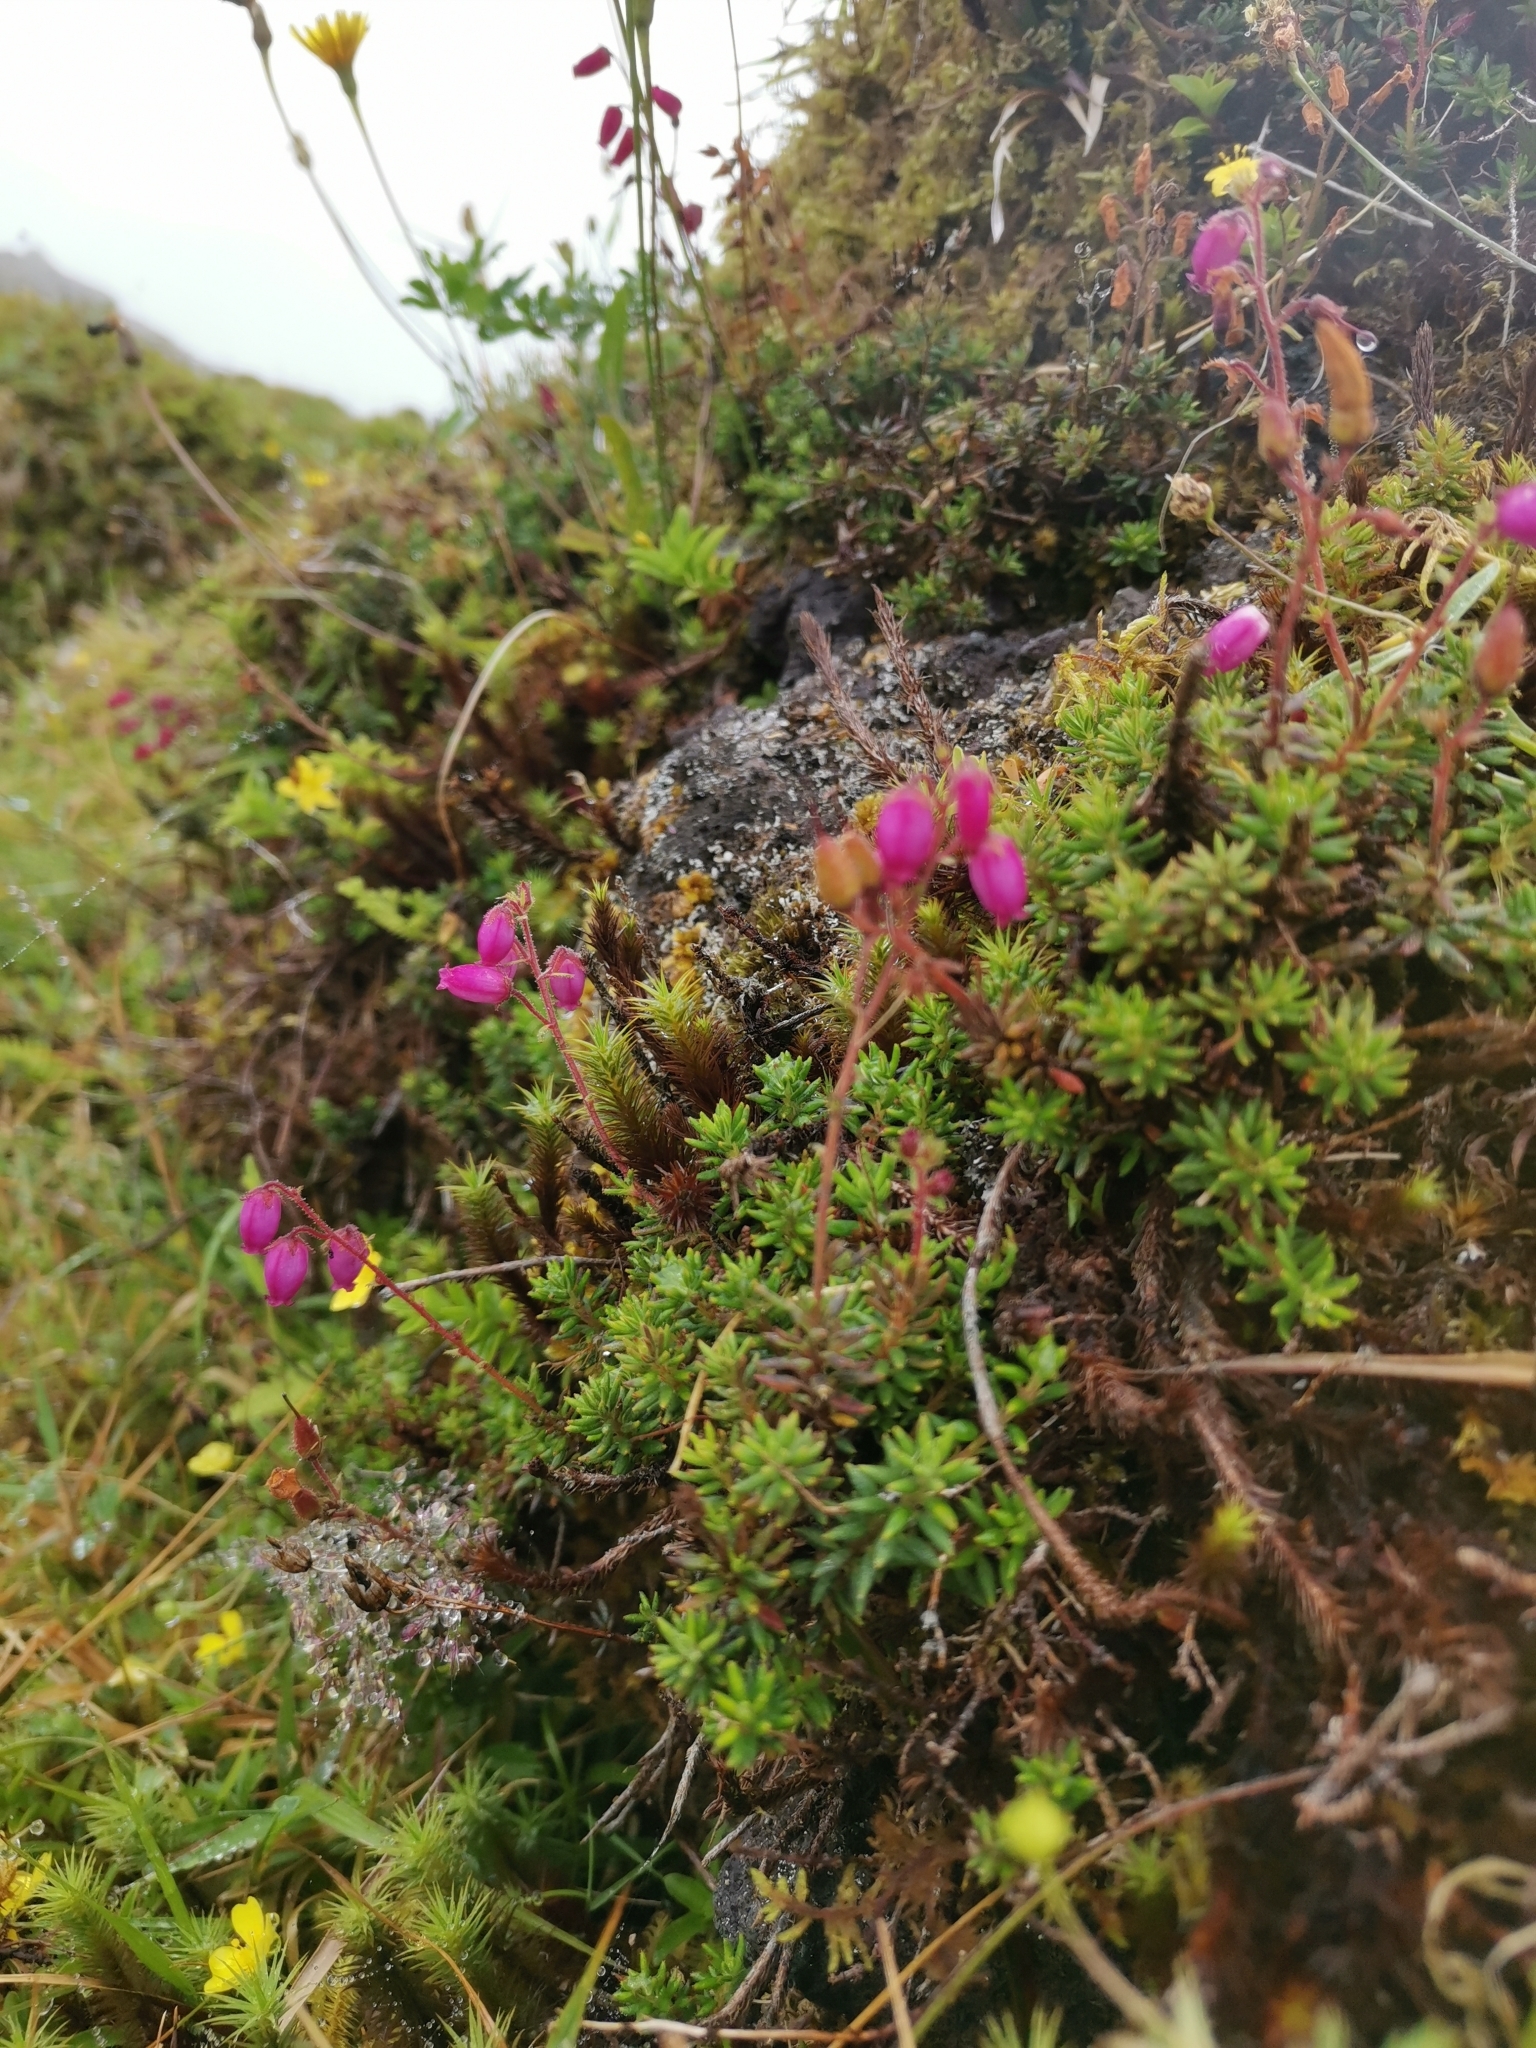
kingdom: Plantae
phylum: Tracheophyta
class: Magnoliopsida
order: Ericales
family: Ericaceae
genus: Daboecia
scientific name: Daboecia cantabrica
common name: St. dabeoc's-heath
